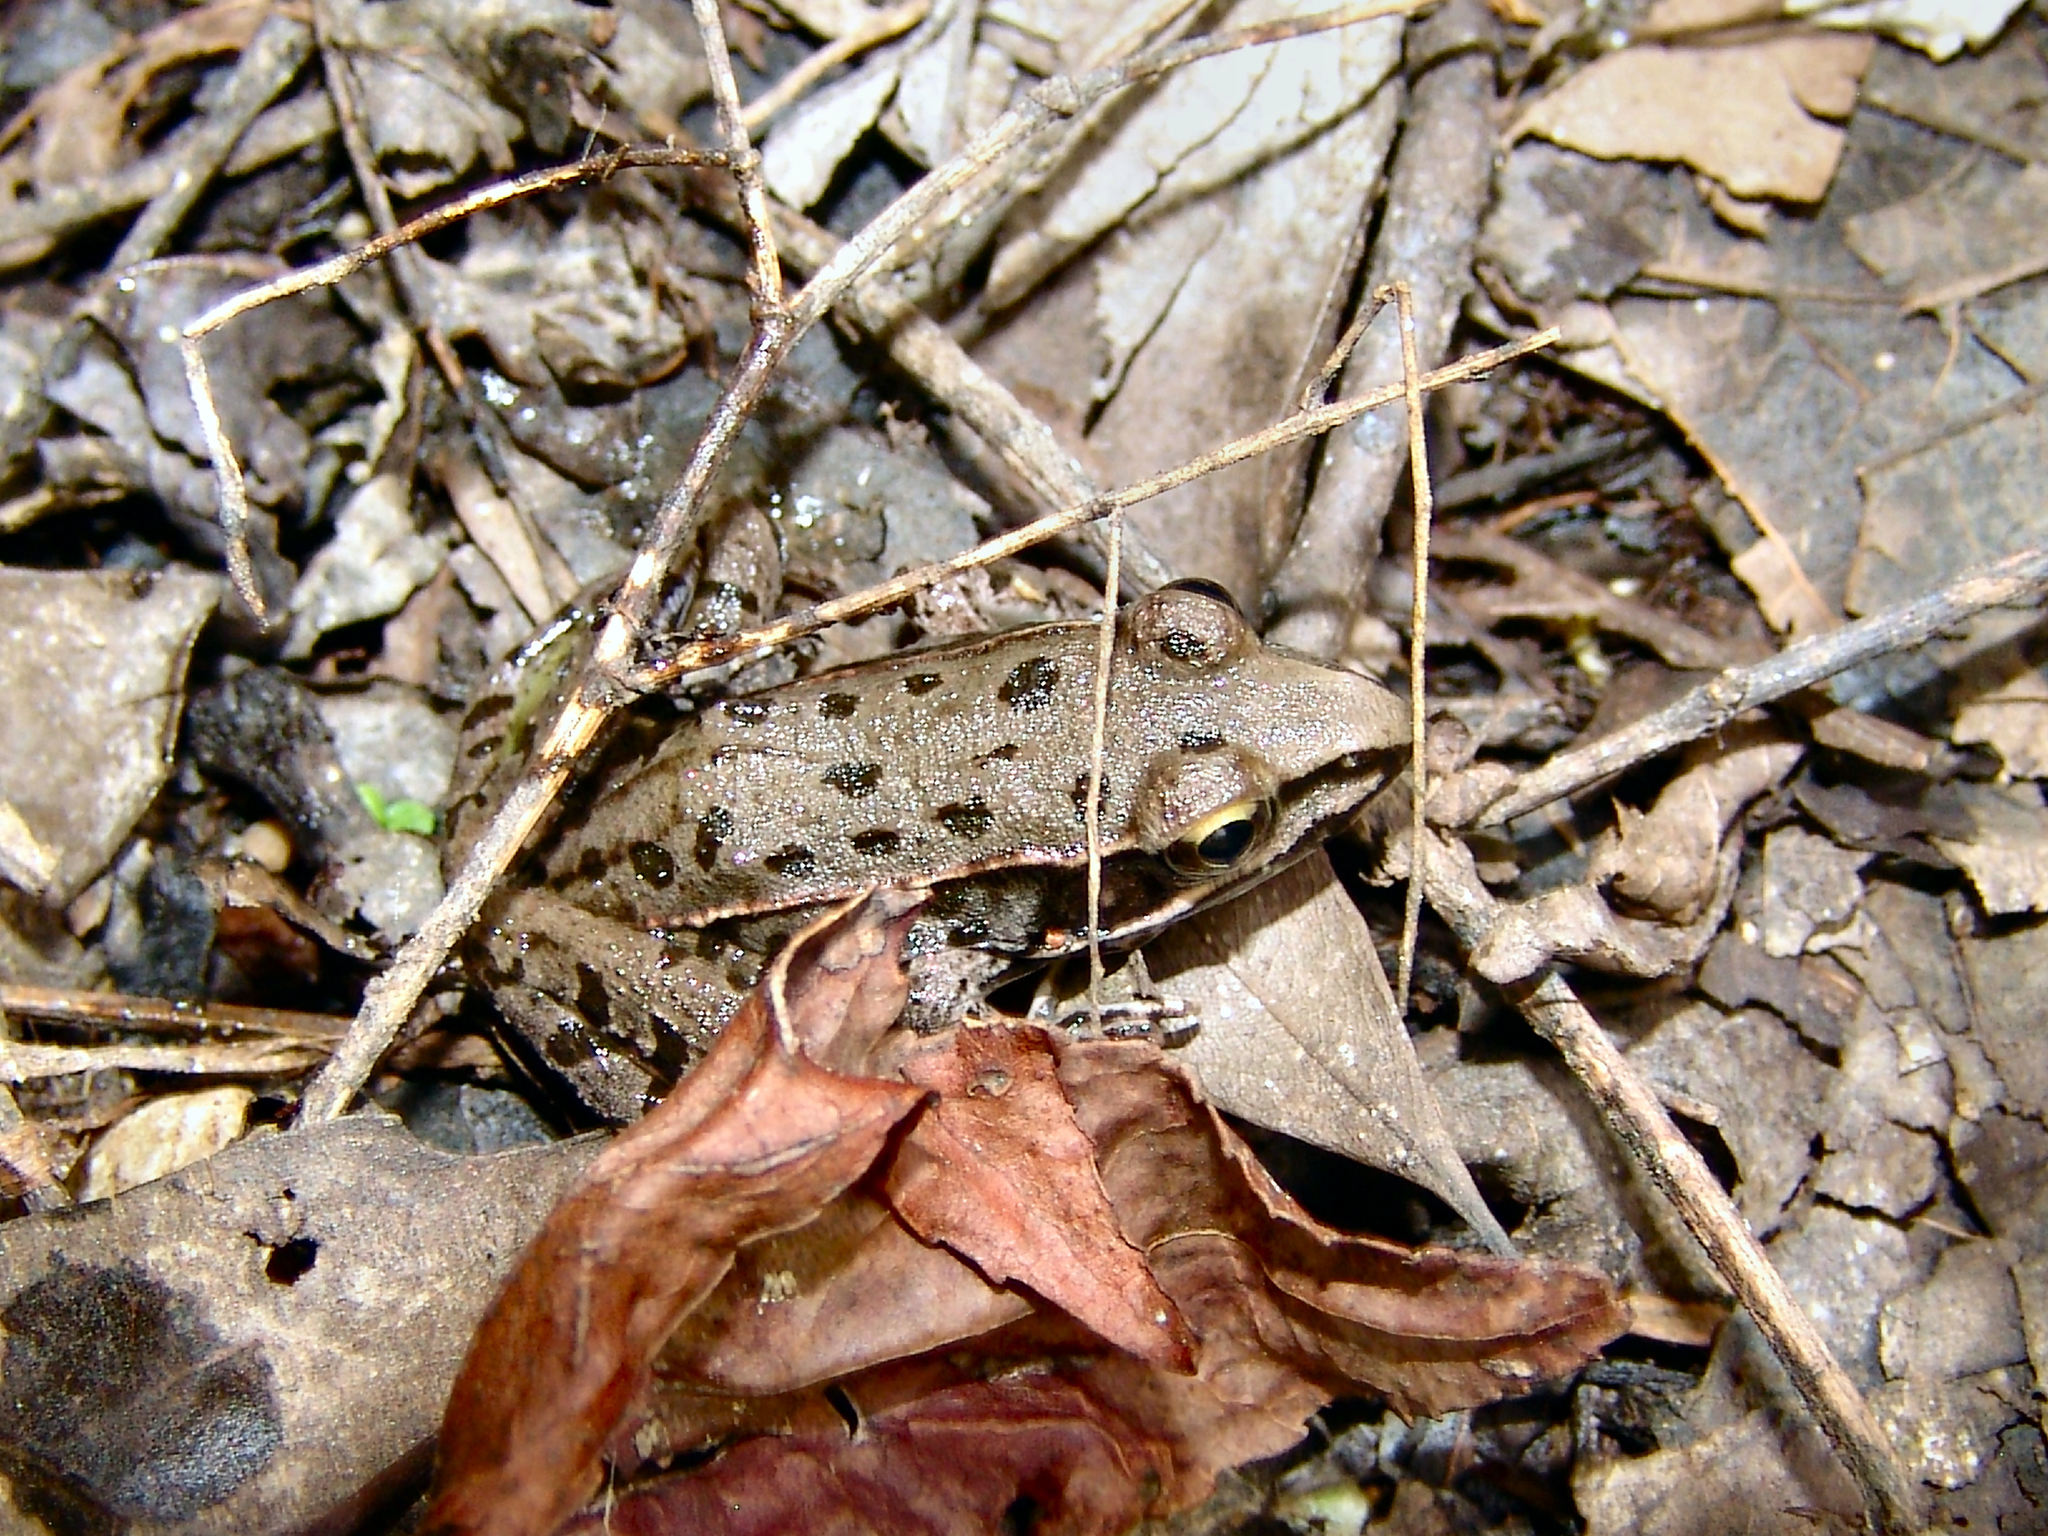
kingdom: Animalia
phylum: Chordata
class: Amphibia
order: Anura
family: Ranidae
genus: Lithobates
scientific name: Lithobates sphenocephalus
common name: Southern leopard frog
